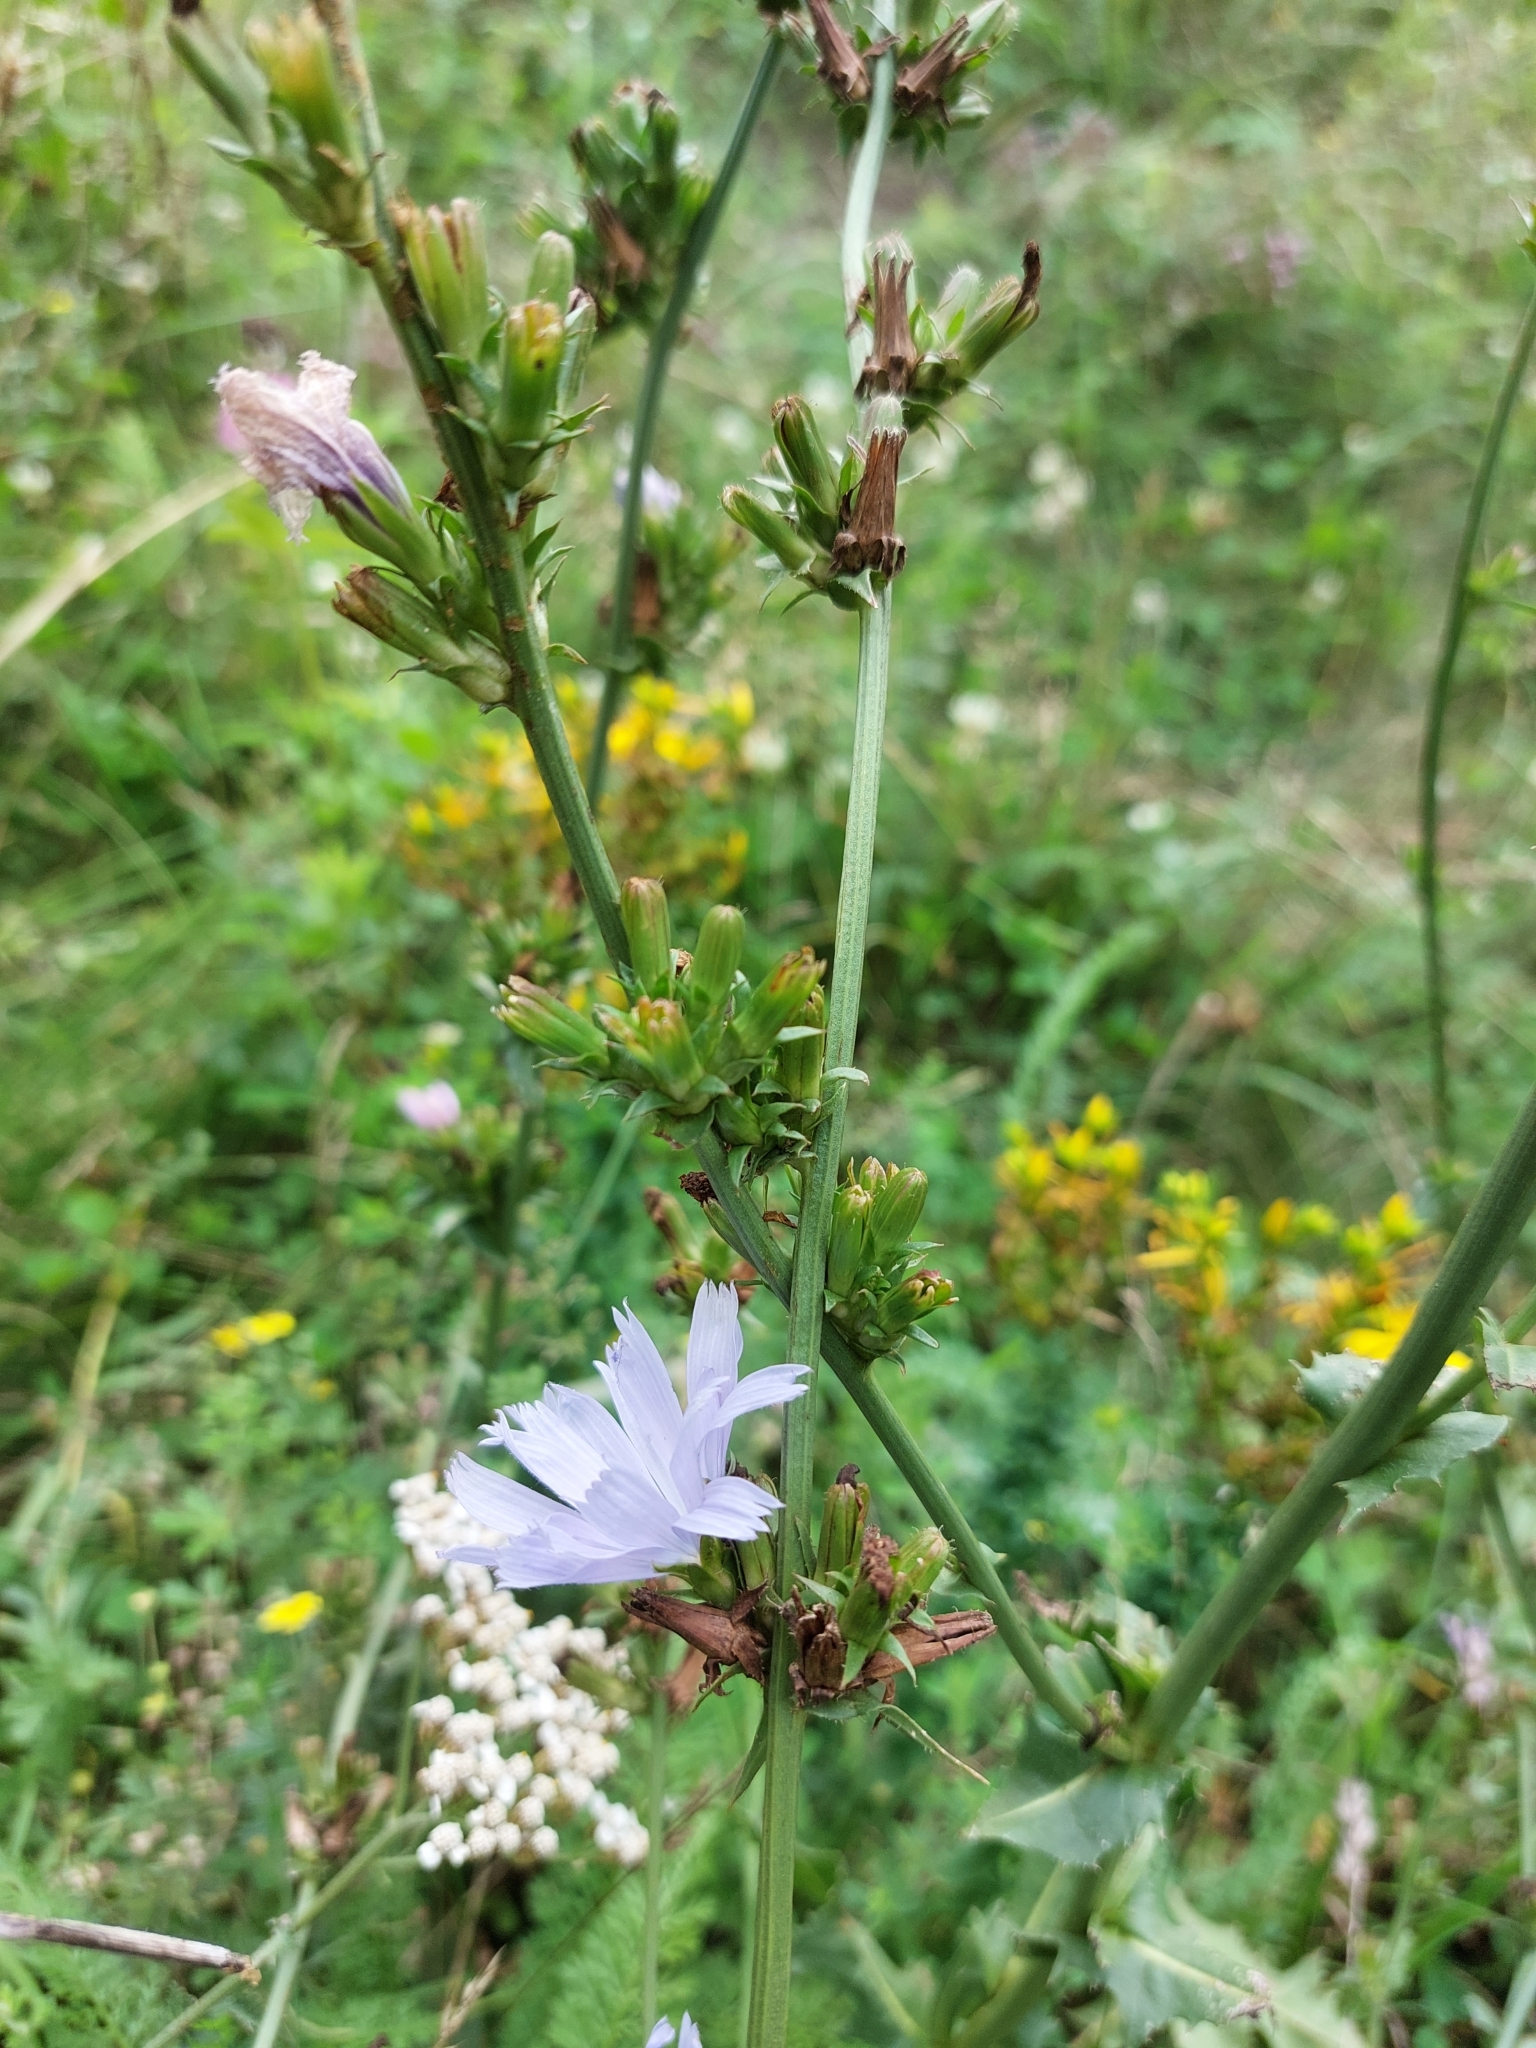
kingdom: Plantae
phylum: Tracheophyta
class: Magnoliopsida
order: Asterales
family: Asteraceae
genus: Cichorium
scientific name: Cichorium intybus
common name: Chicory
